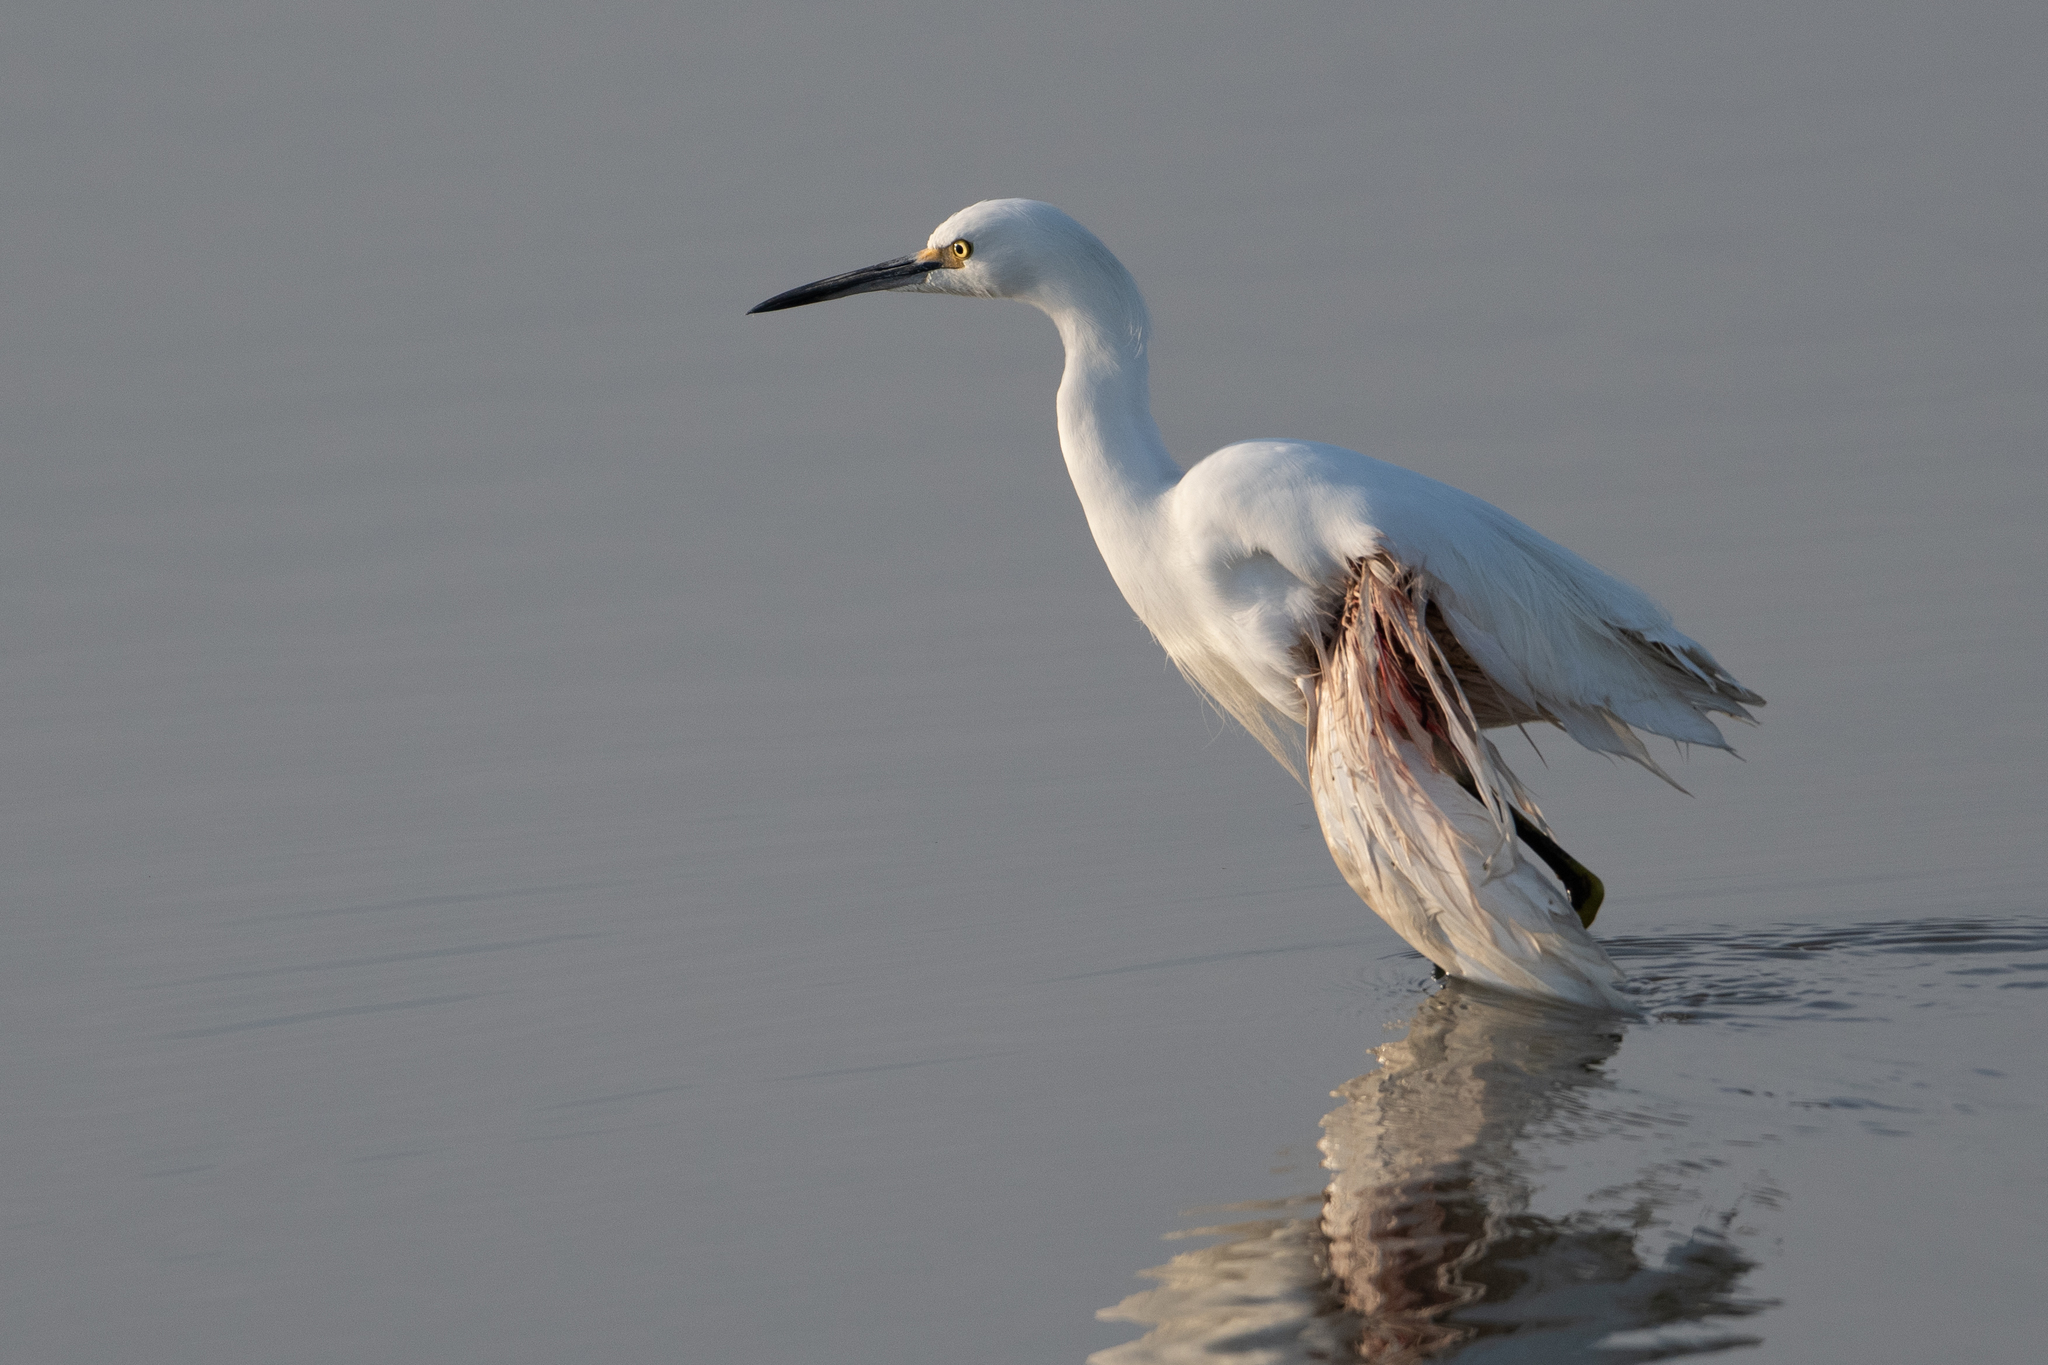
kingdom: Animalia
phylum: Chordata
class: Aves
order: Pelecaniformes
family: Ardeidae
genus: Egretta
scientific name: Egretta thula
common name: Snowy egret
